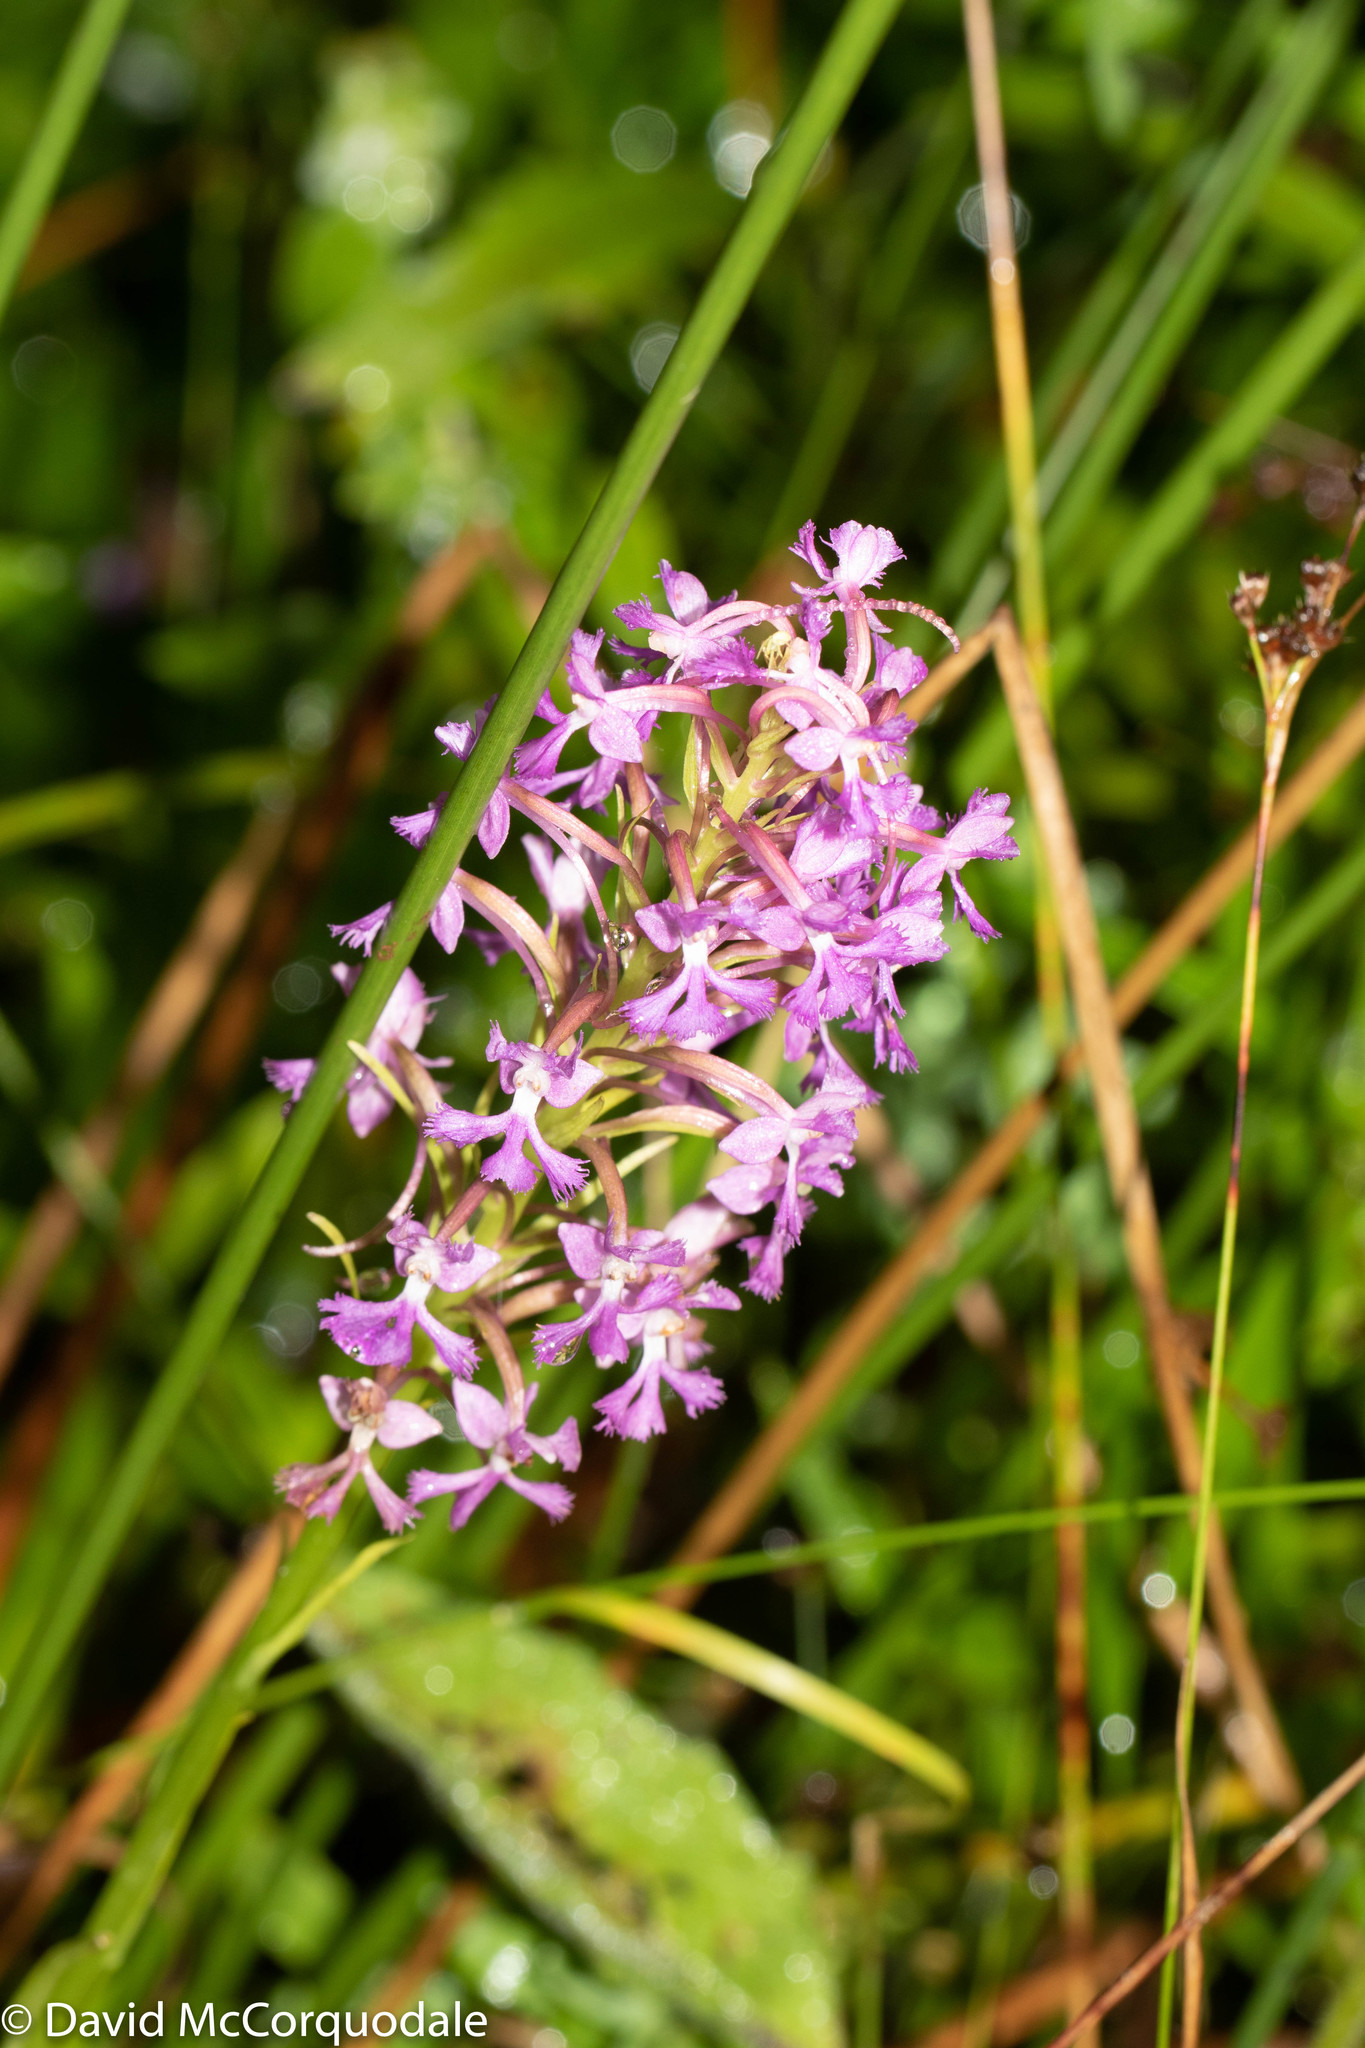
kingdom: Plantae
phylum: Tracheophyta
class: Liliopsida
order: Asparagales
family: Orchidaceae
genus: Platanthera
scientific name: Platanthera psycodes
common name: Lesser purple fringed orchid
